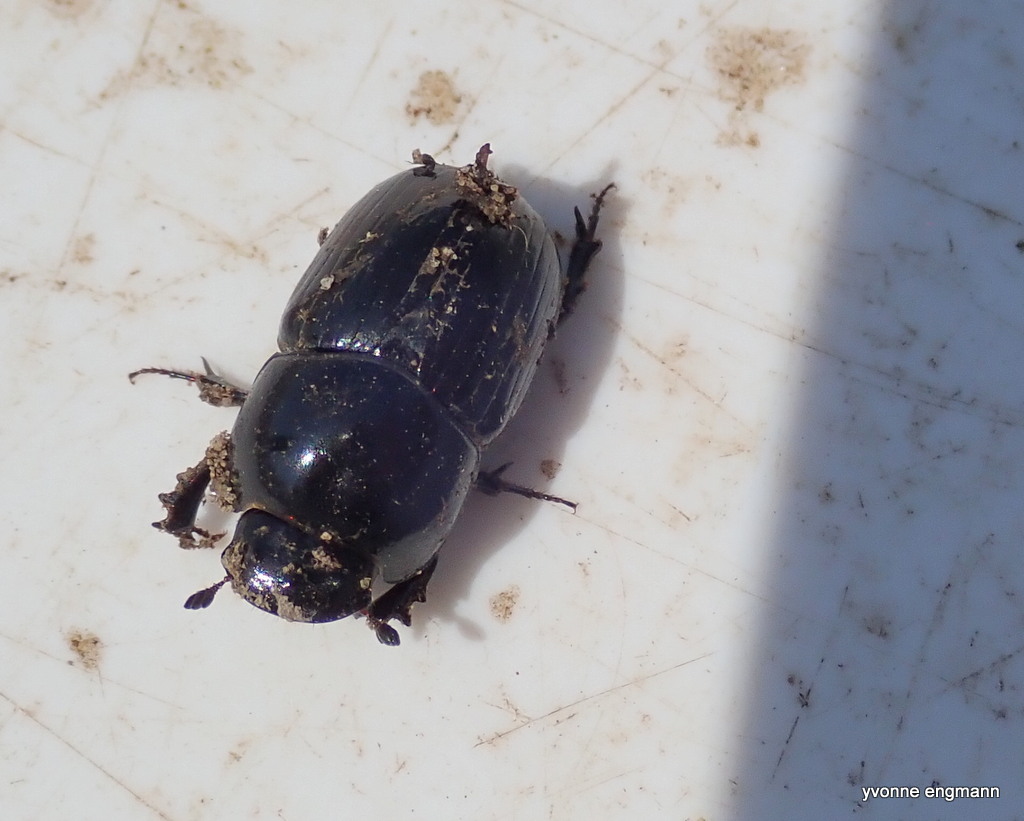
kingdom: Animalia
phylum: Arthropoda
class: Insecta
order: Coleoptera
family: Scarabaeidae
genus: Teuchestes
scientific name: Teuchestes fossor
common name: Digger small dung beetle
